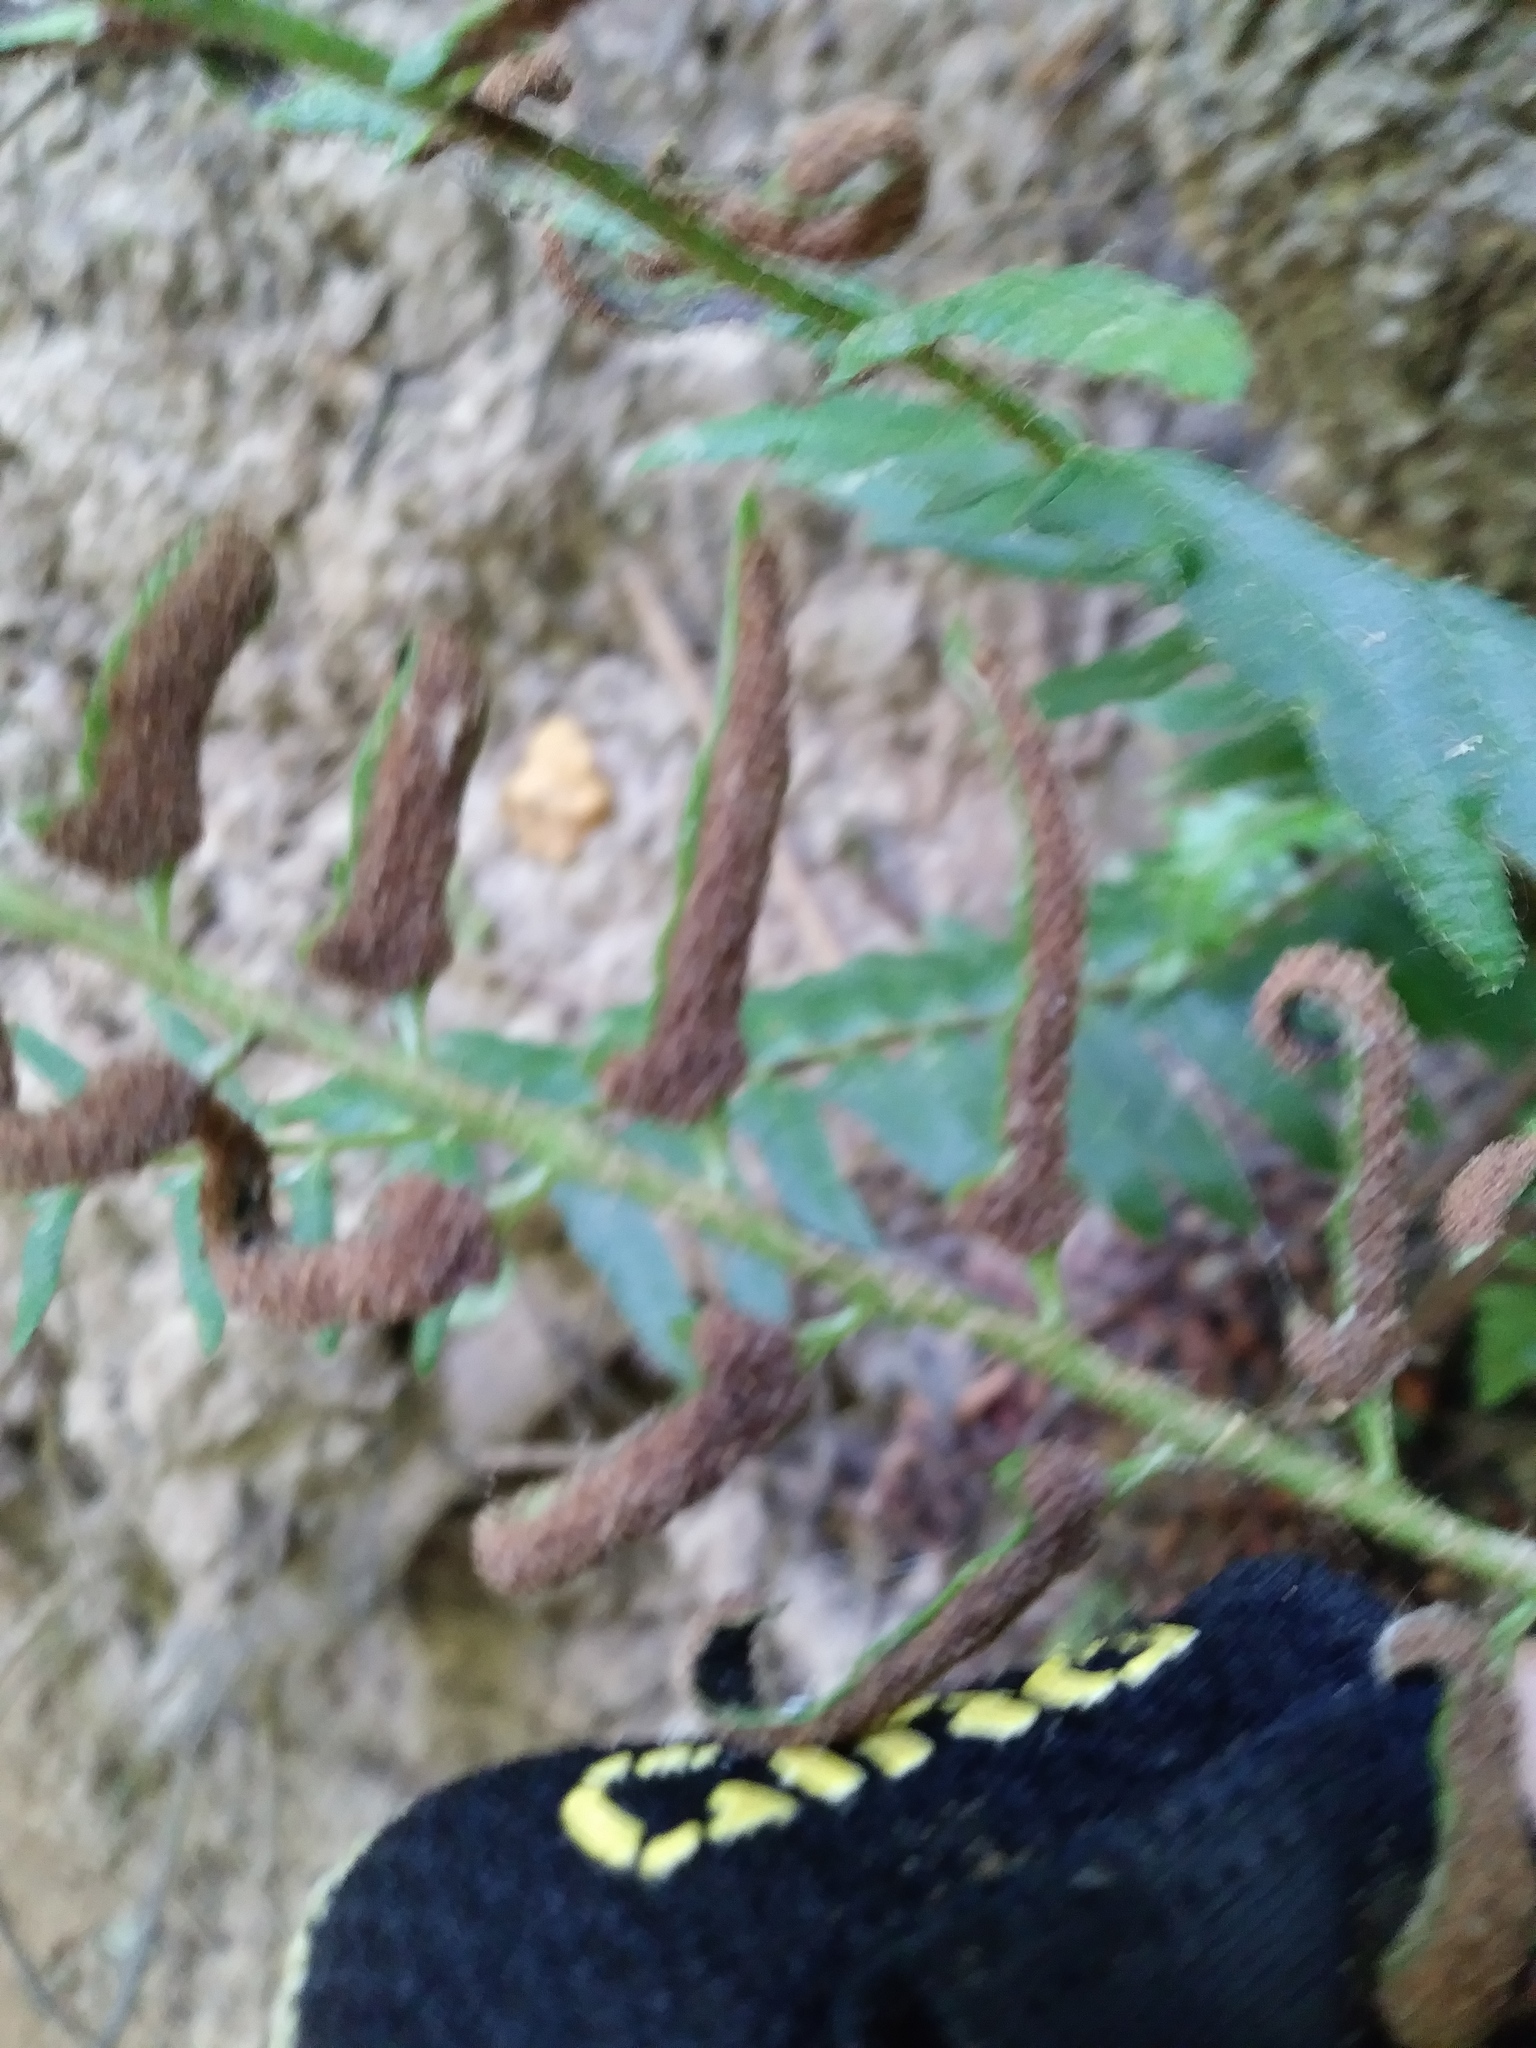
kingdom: Plantae
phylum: Tracheophyta
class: Polypodiopsida
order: Polypodiales
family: Dryopteridaceae
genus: Polystichum
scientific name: Polystichum acrostichoides
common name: Christmas fern
